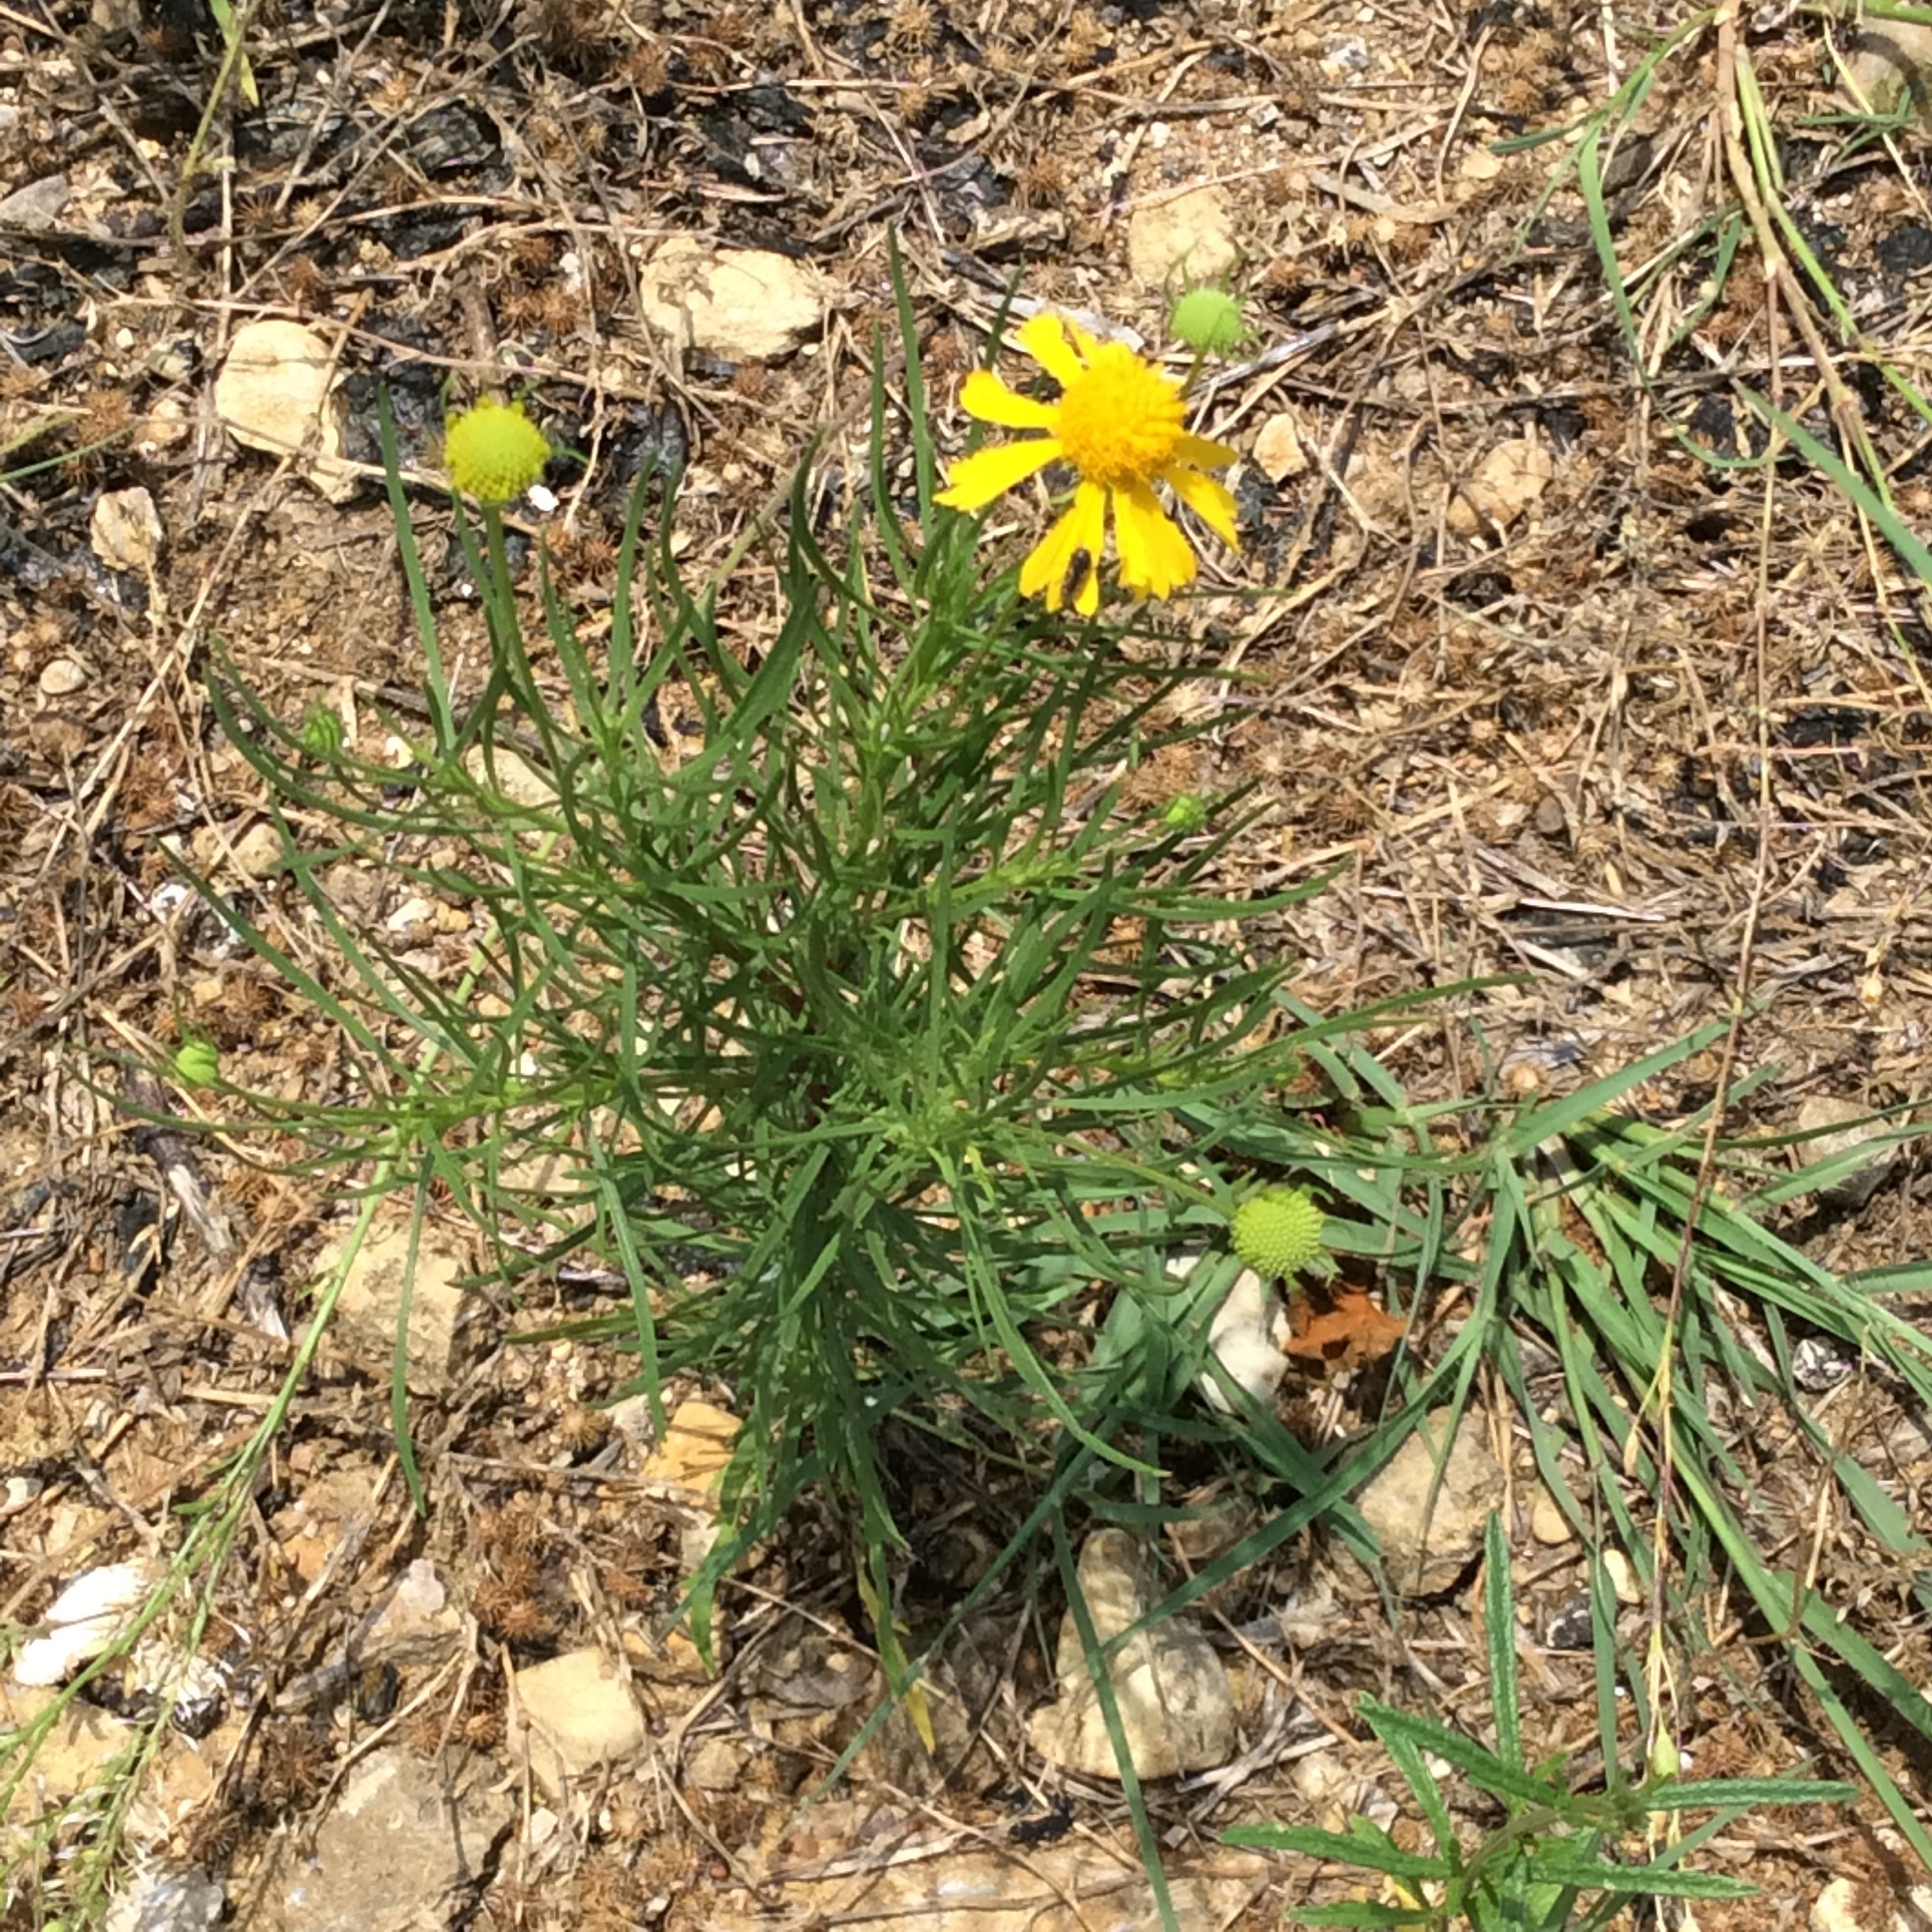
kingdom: Plantae
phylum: Tracheophyta
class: Magnoliopsida
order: Asterales
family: Asteraceae
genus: Helenium
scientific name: Helenium amarum
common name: Bitter sneezeweed
